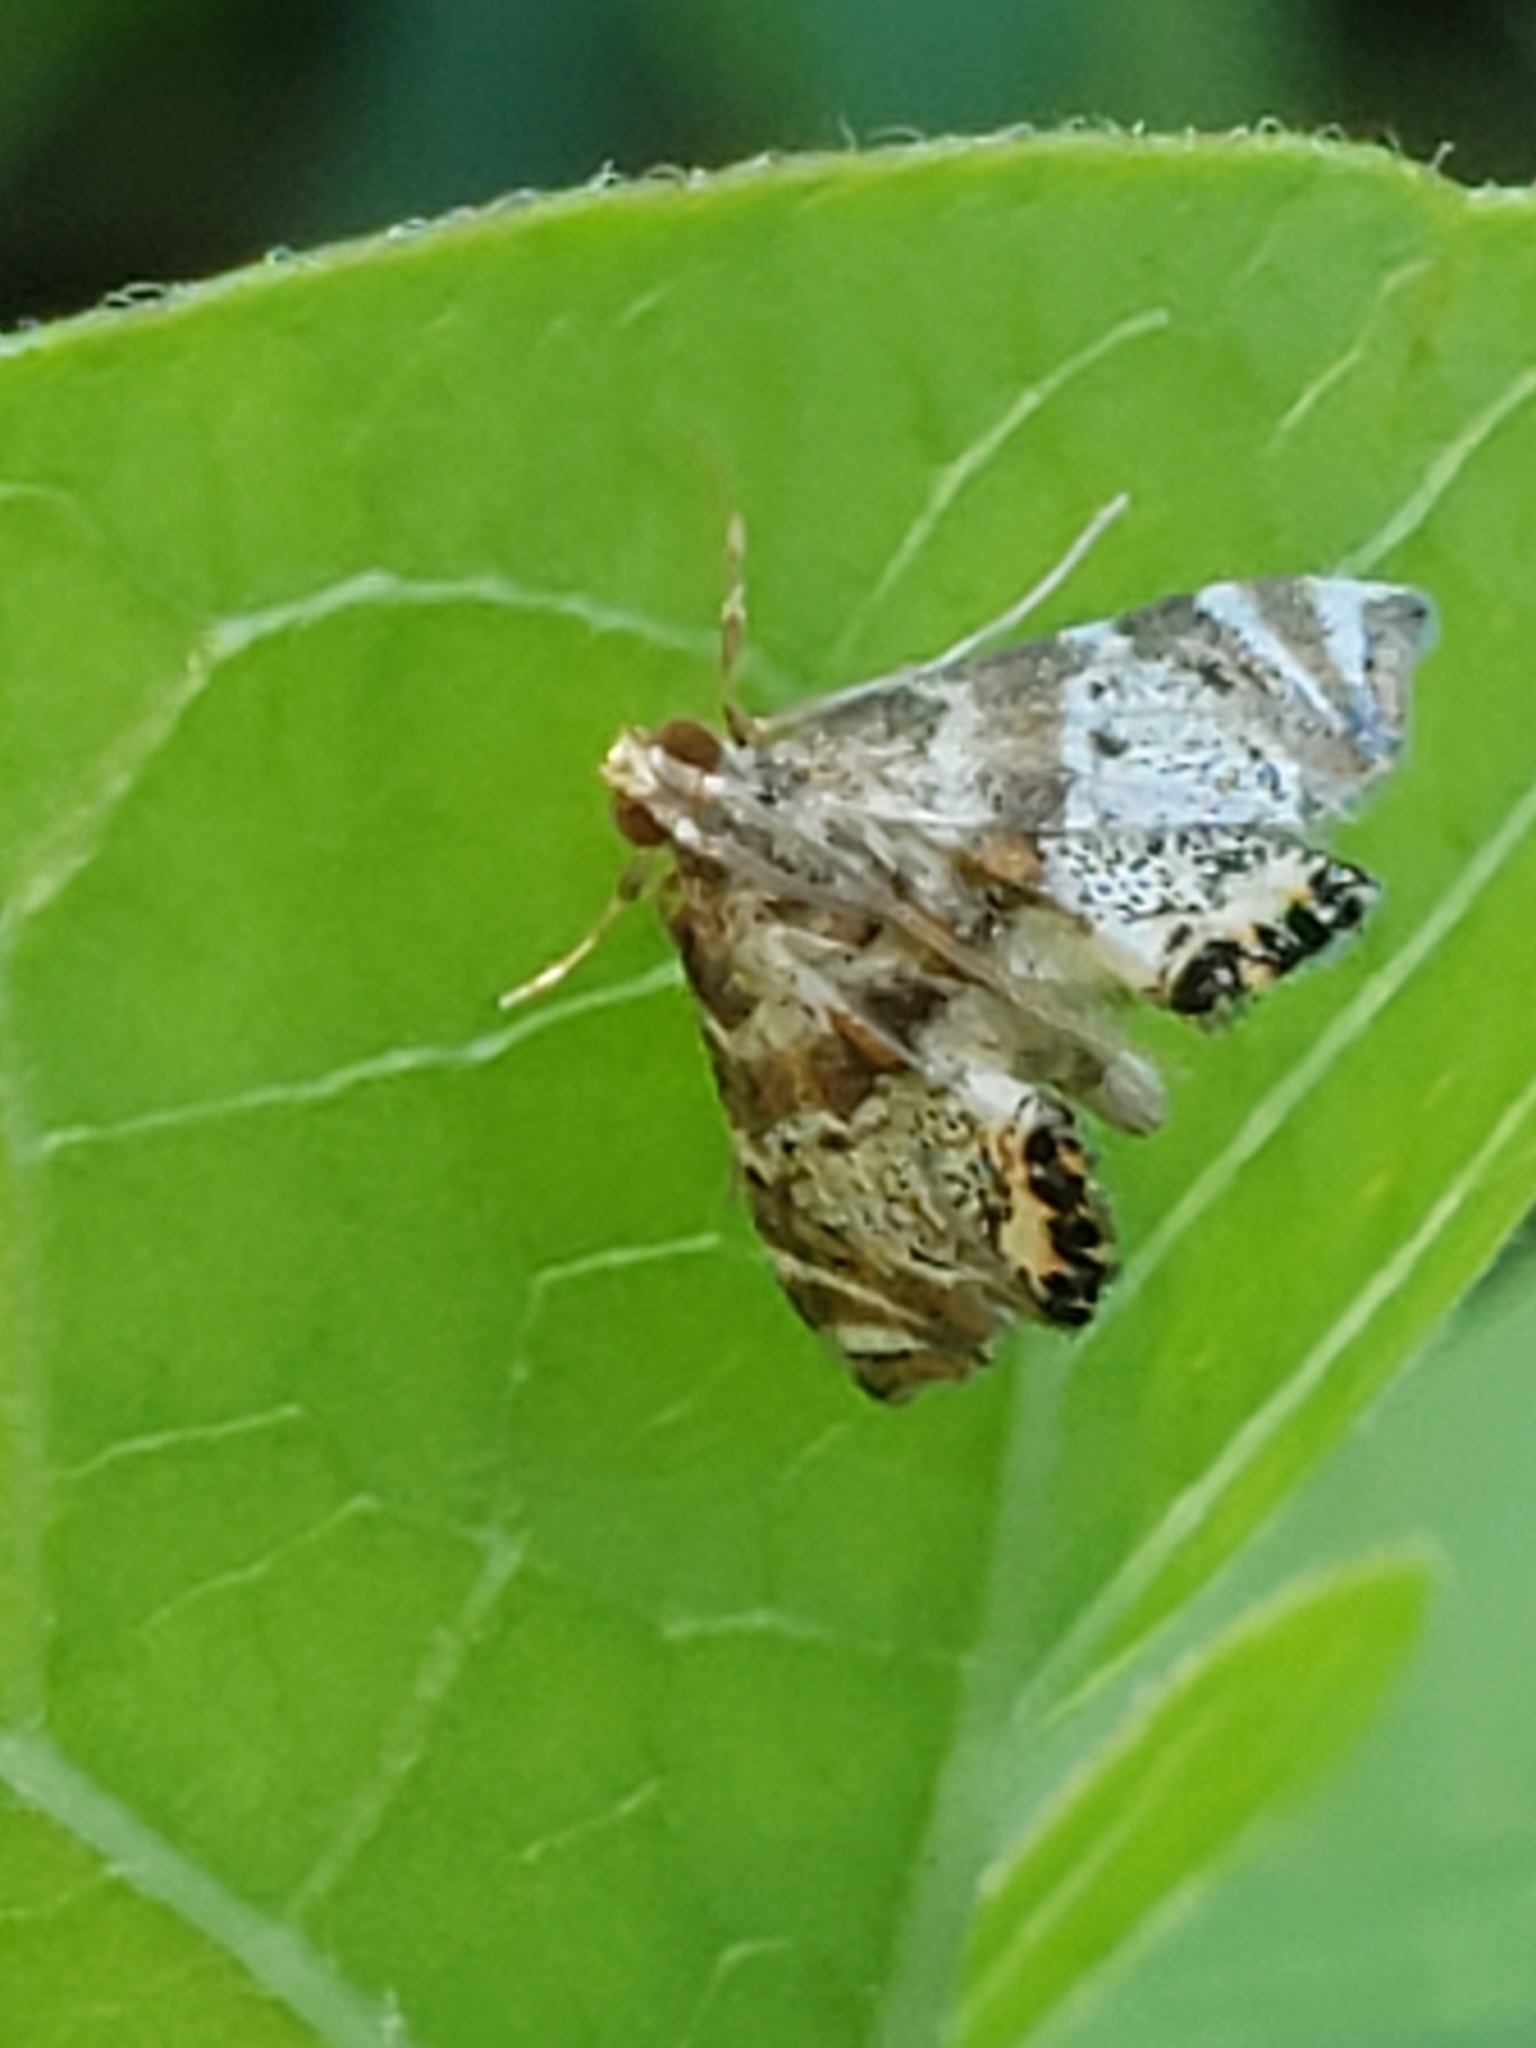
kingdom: Animalia
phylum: Arthropoda
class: Insecta
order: Lepidoptera
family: Crambidae
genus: Petrophila
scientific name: Petrophila fulicalis
